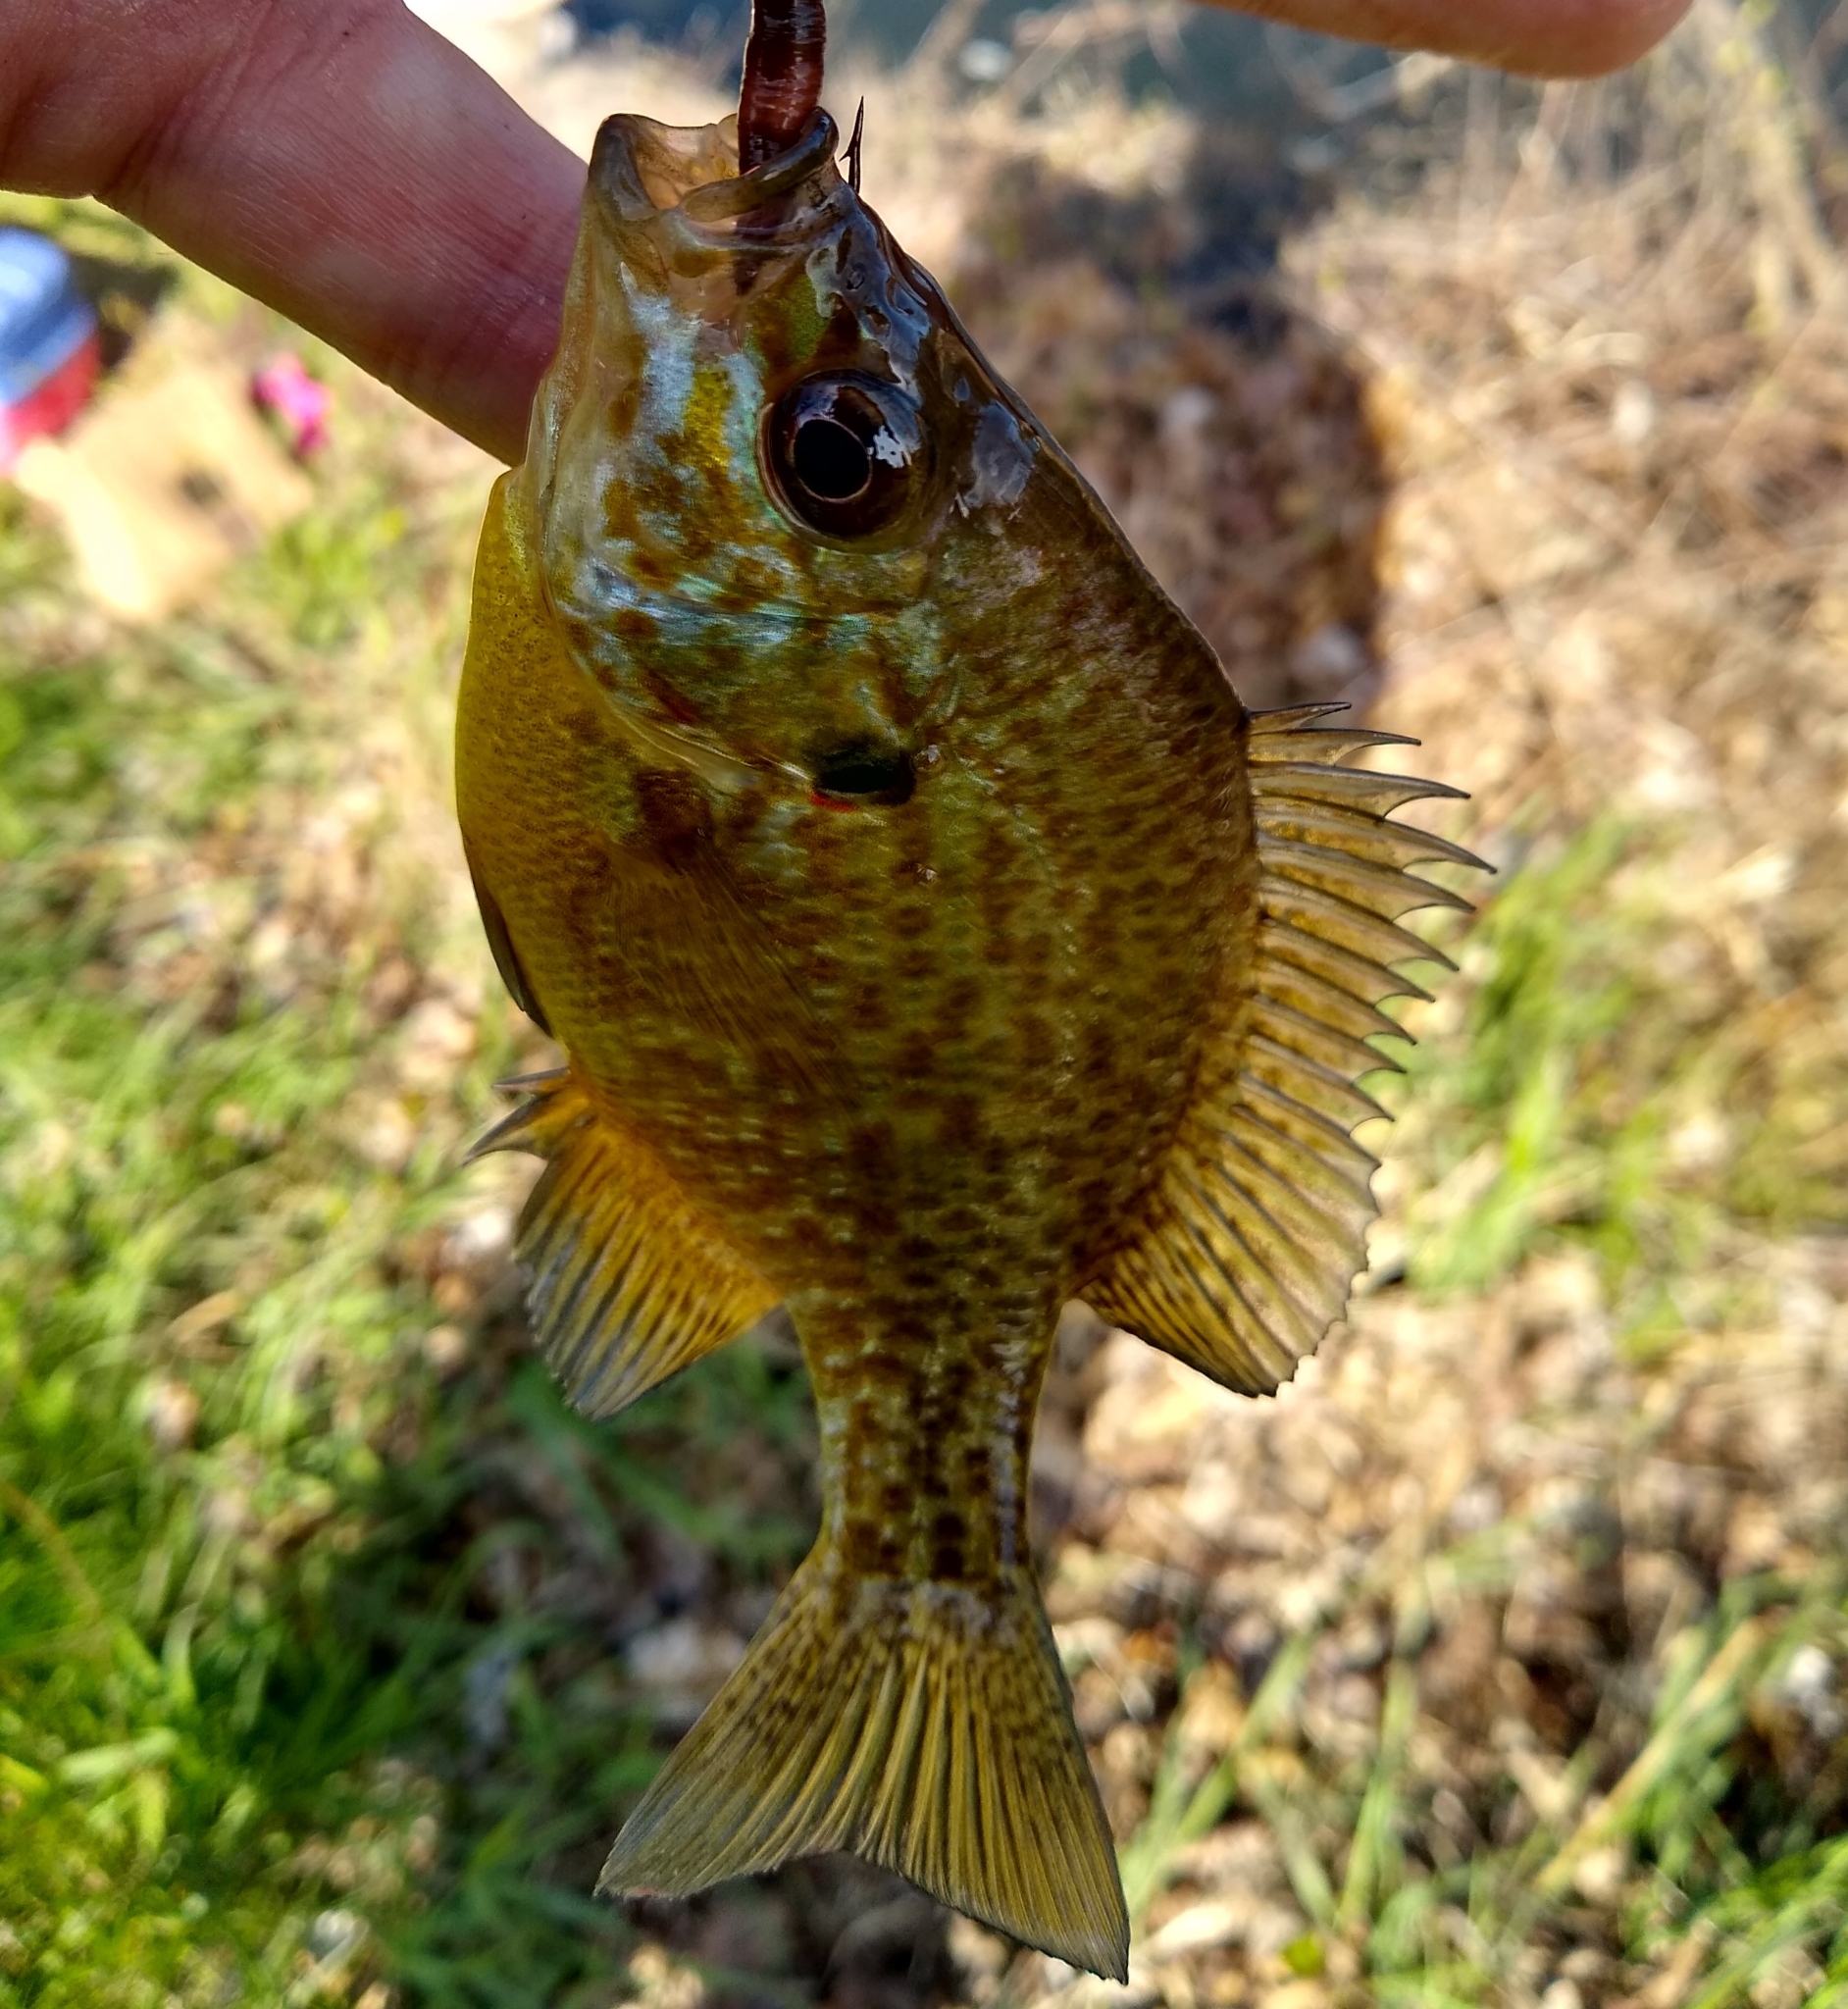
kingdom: Animalia
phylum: Chordata
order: Perciformes
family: Centrarchidae
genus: Lepomis
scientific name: Lepomis gibbosus
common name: Pumpkinseed
